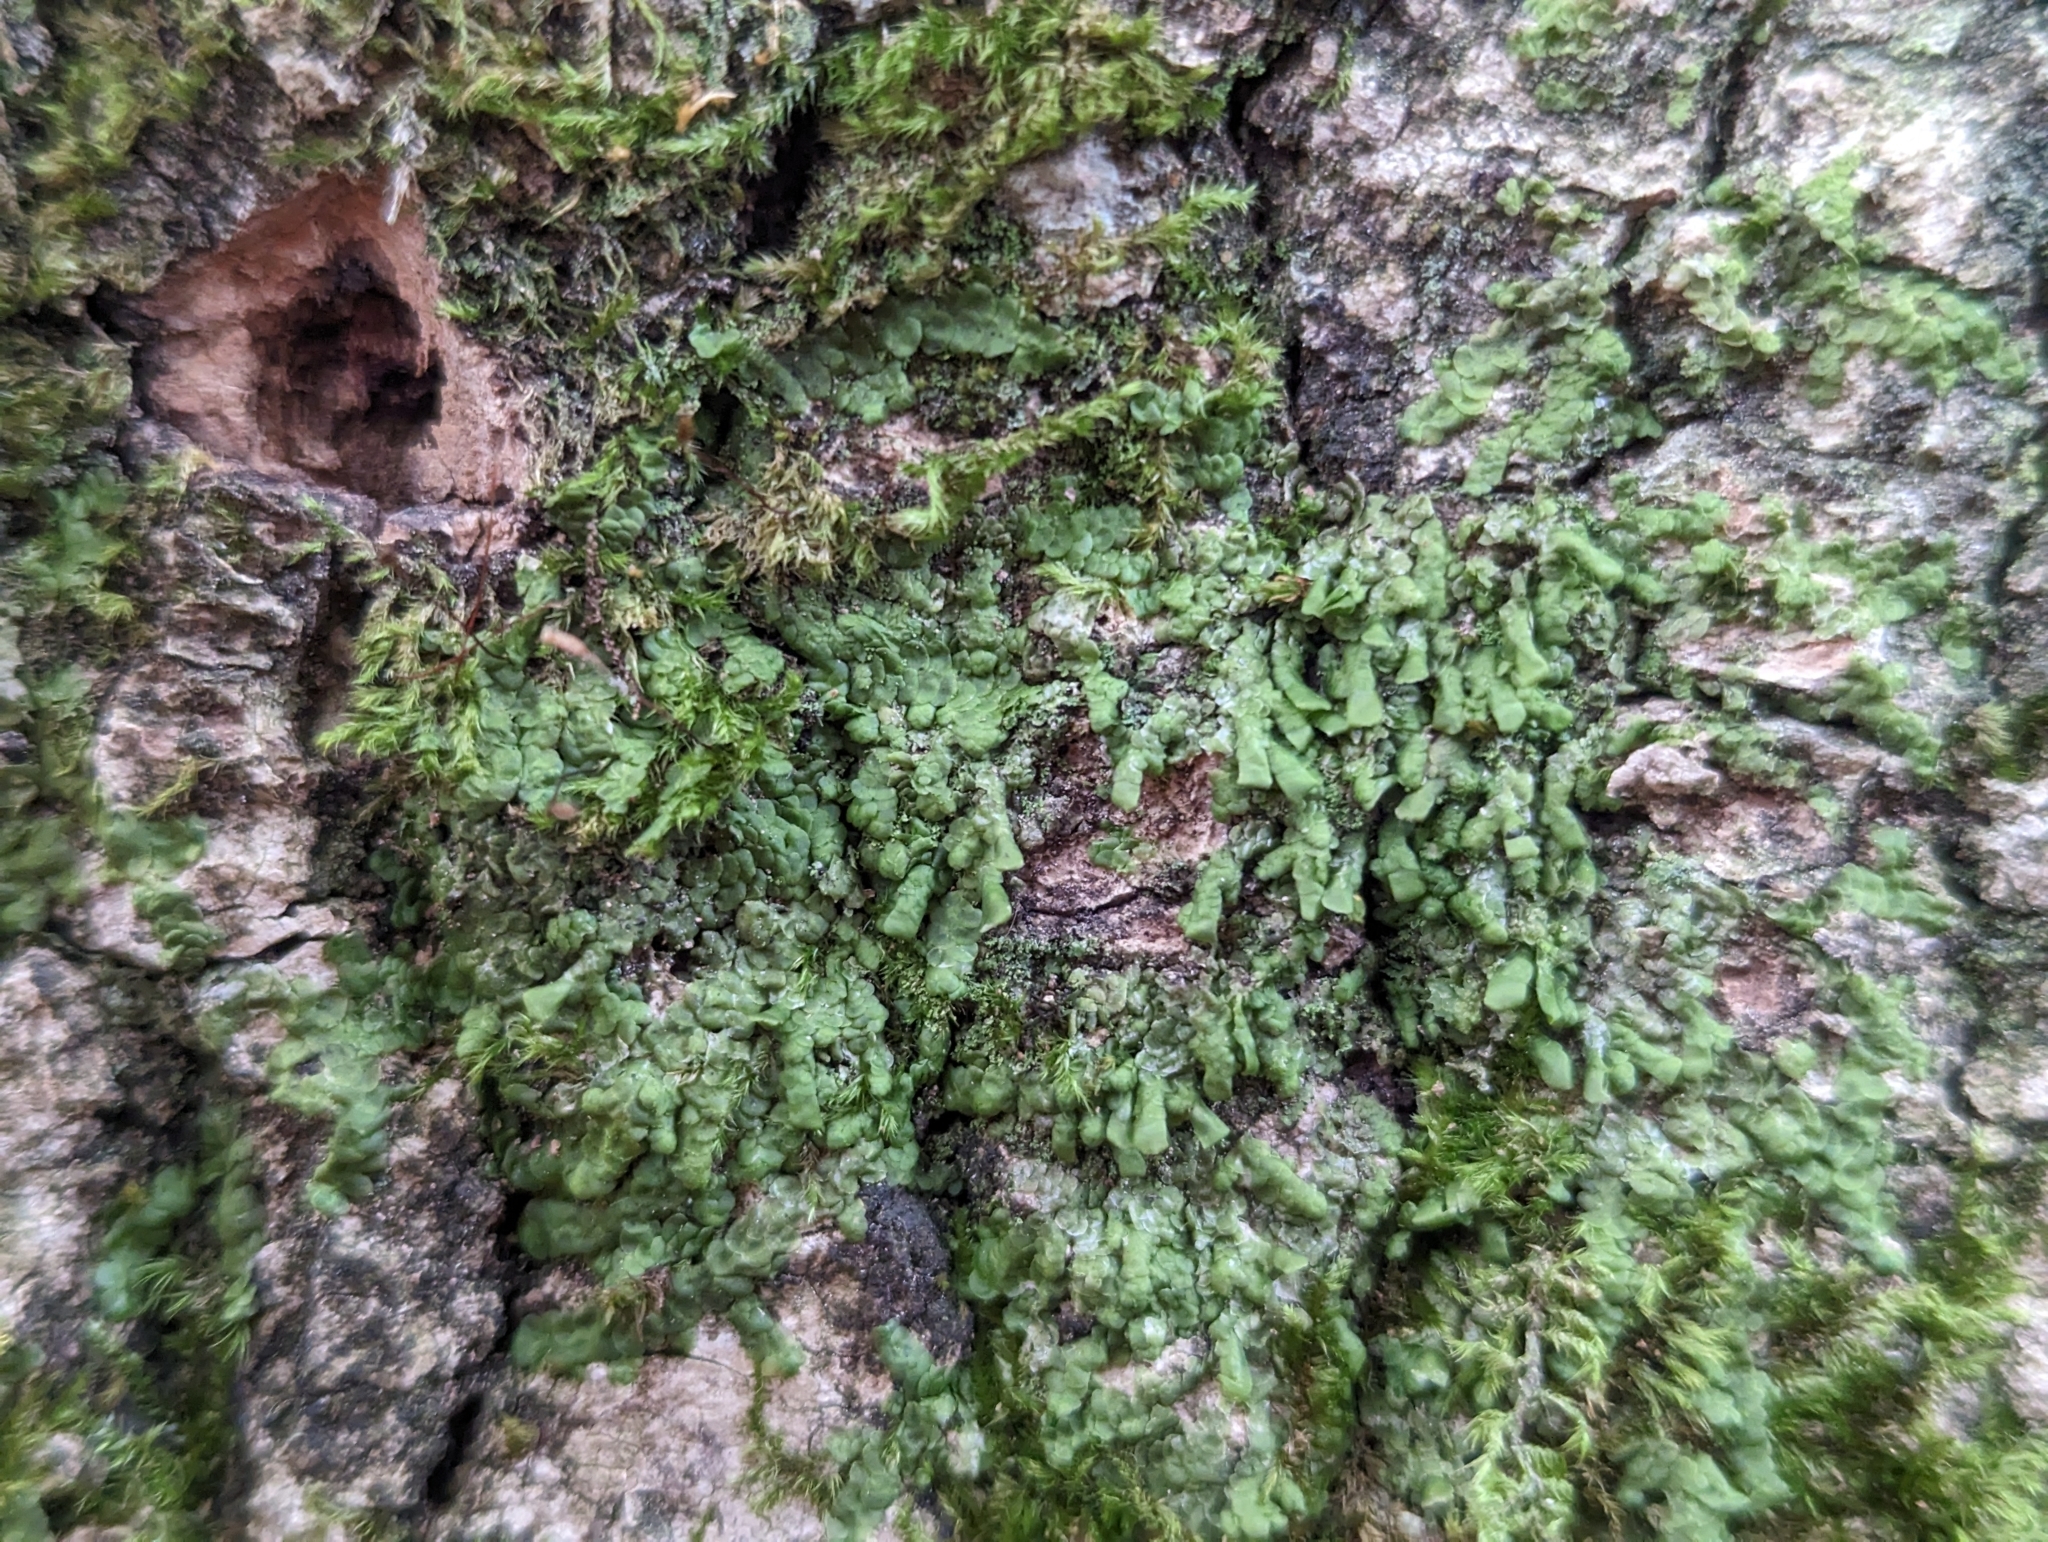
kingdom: Plantae
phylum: Marchantiophyta
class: Jungermanniopsida
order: Porellales
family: Radulaceae
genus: Radula
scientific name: Radula complanata
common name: Flat-leaved scalewort
